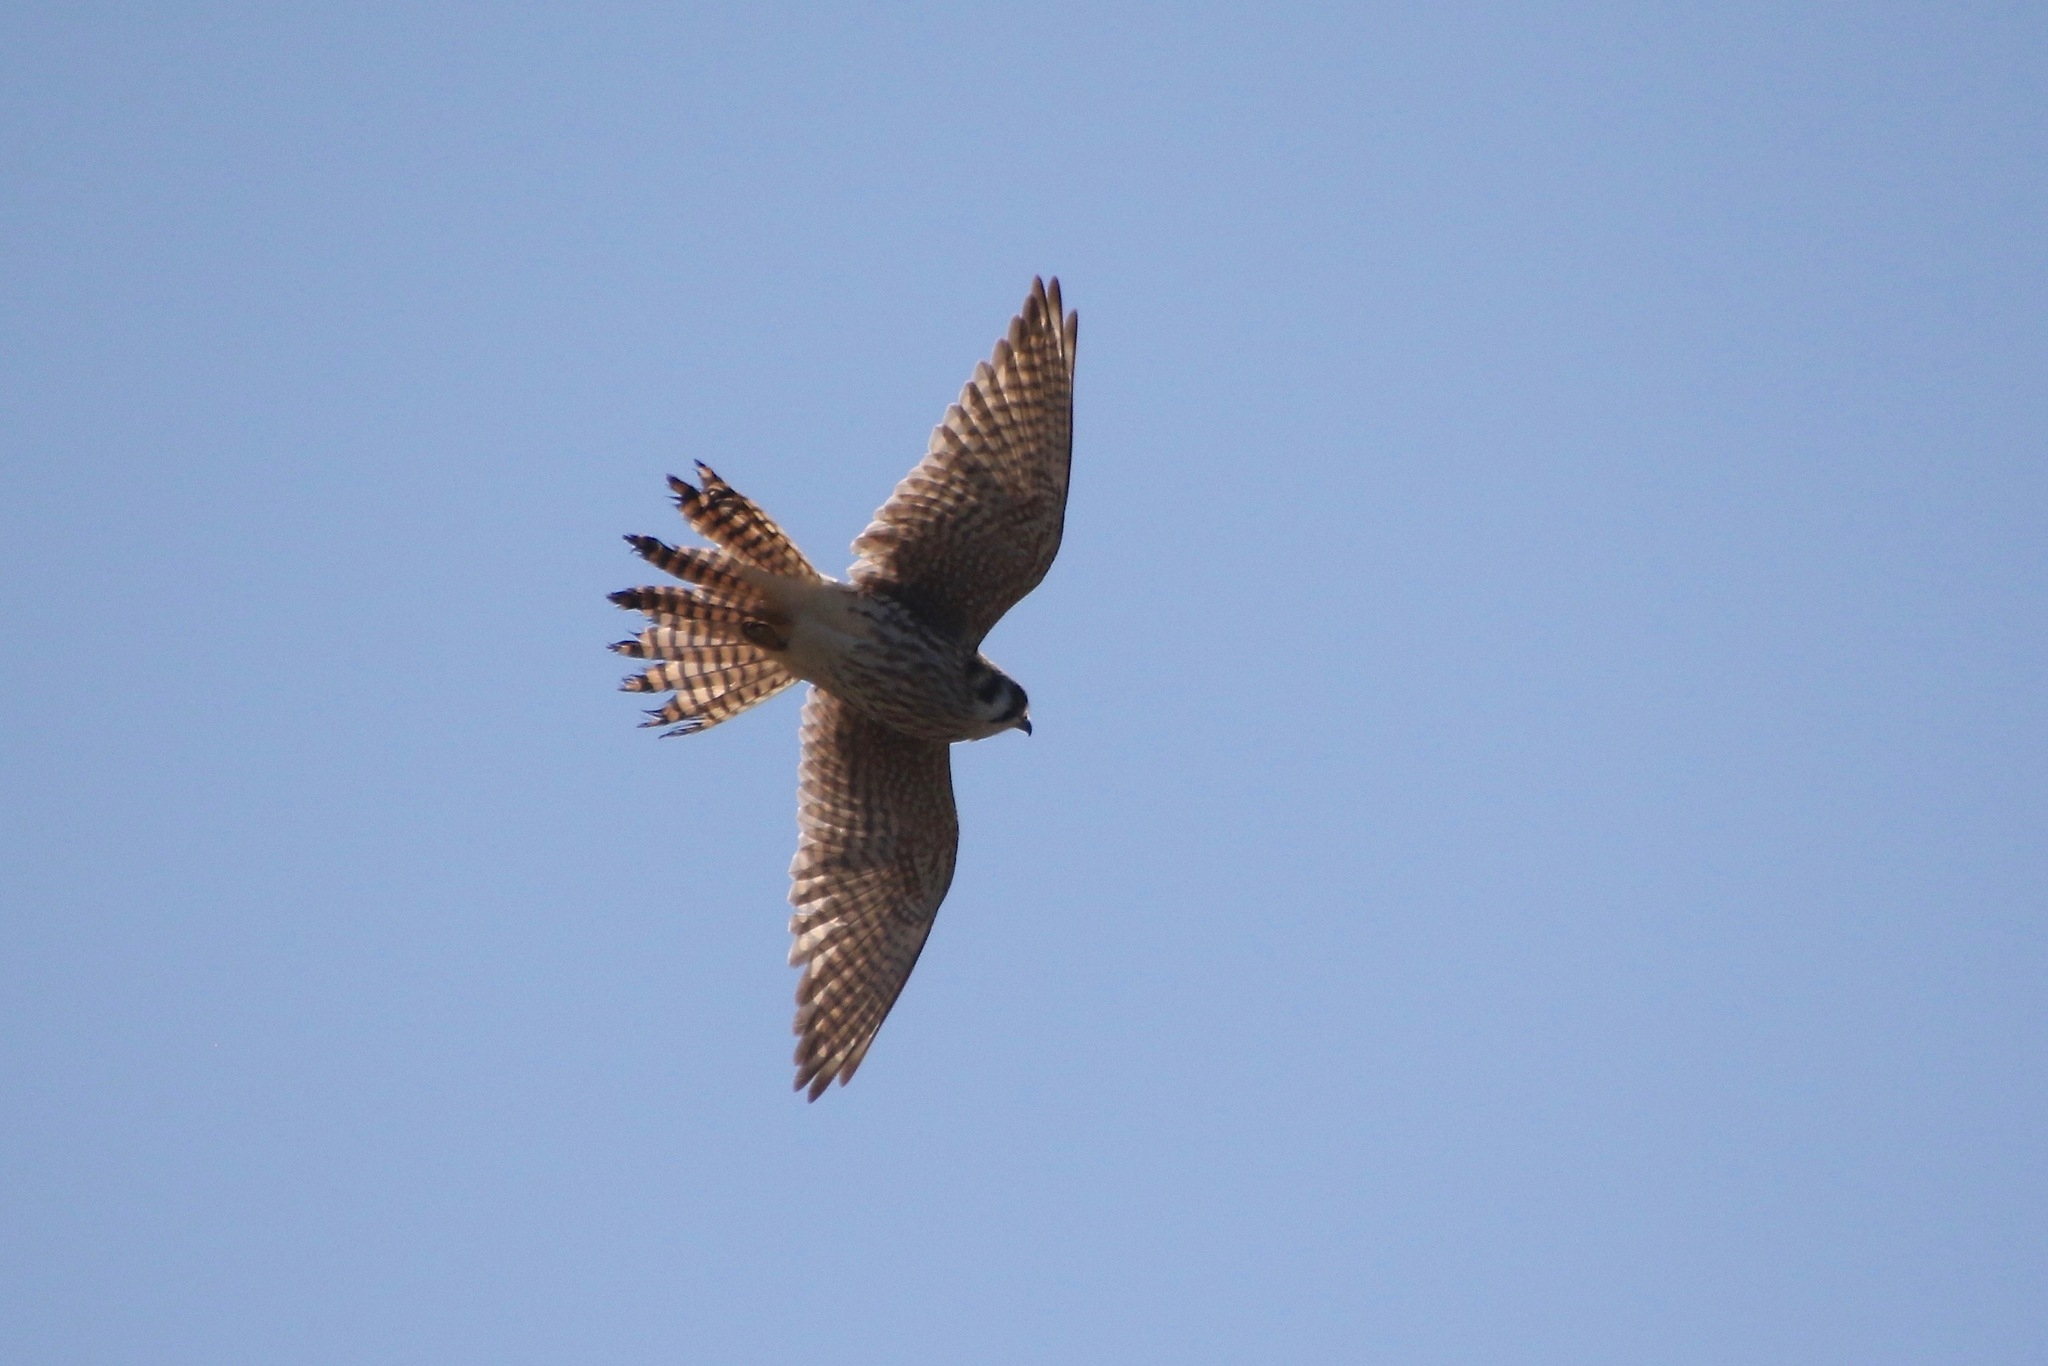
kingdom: Animalia
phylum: Chordata
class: Aves
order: Falconiformes
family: Falconidae
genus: Falco
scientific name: Falco sparverius
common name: American kestrel
